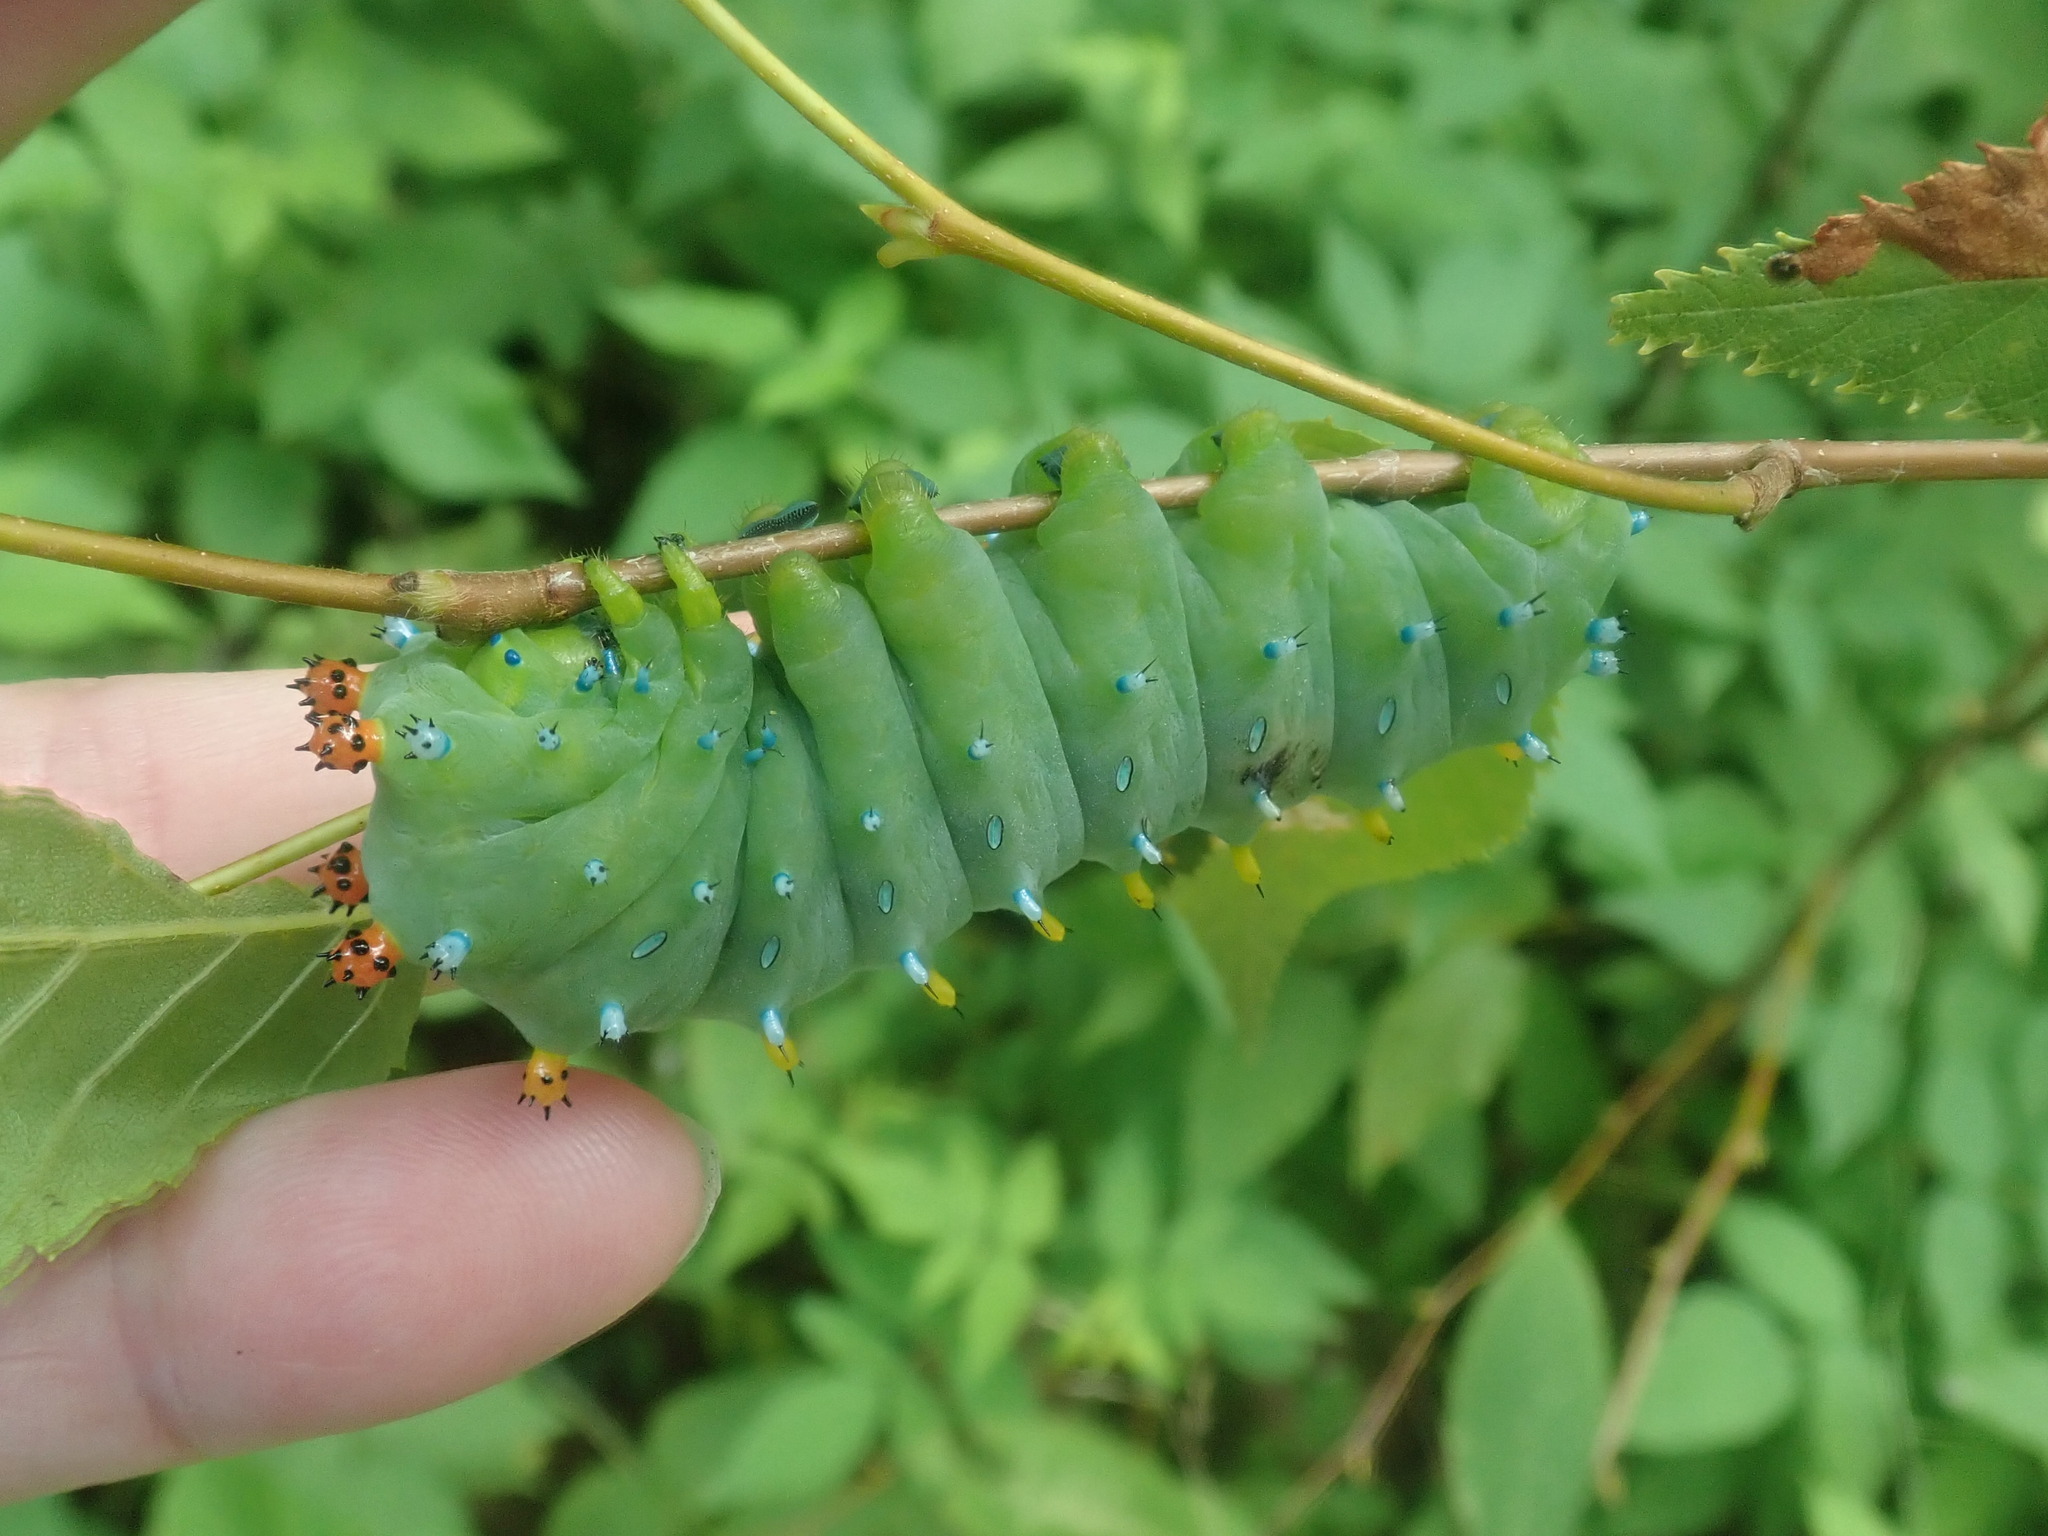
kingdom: Animalia
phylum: Arthropoda
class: Insecta
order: Lepidoptera
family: Saturniidae
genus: Hyalophora
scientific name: Hyalophora cecropia
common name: Cecropia silkmoth
